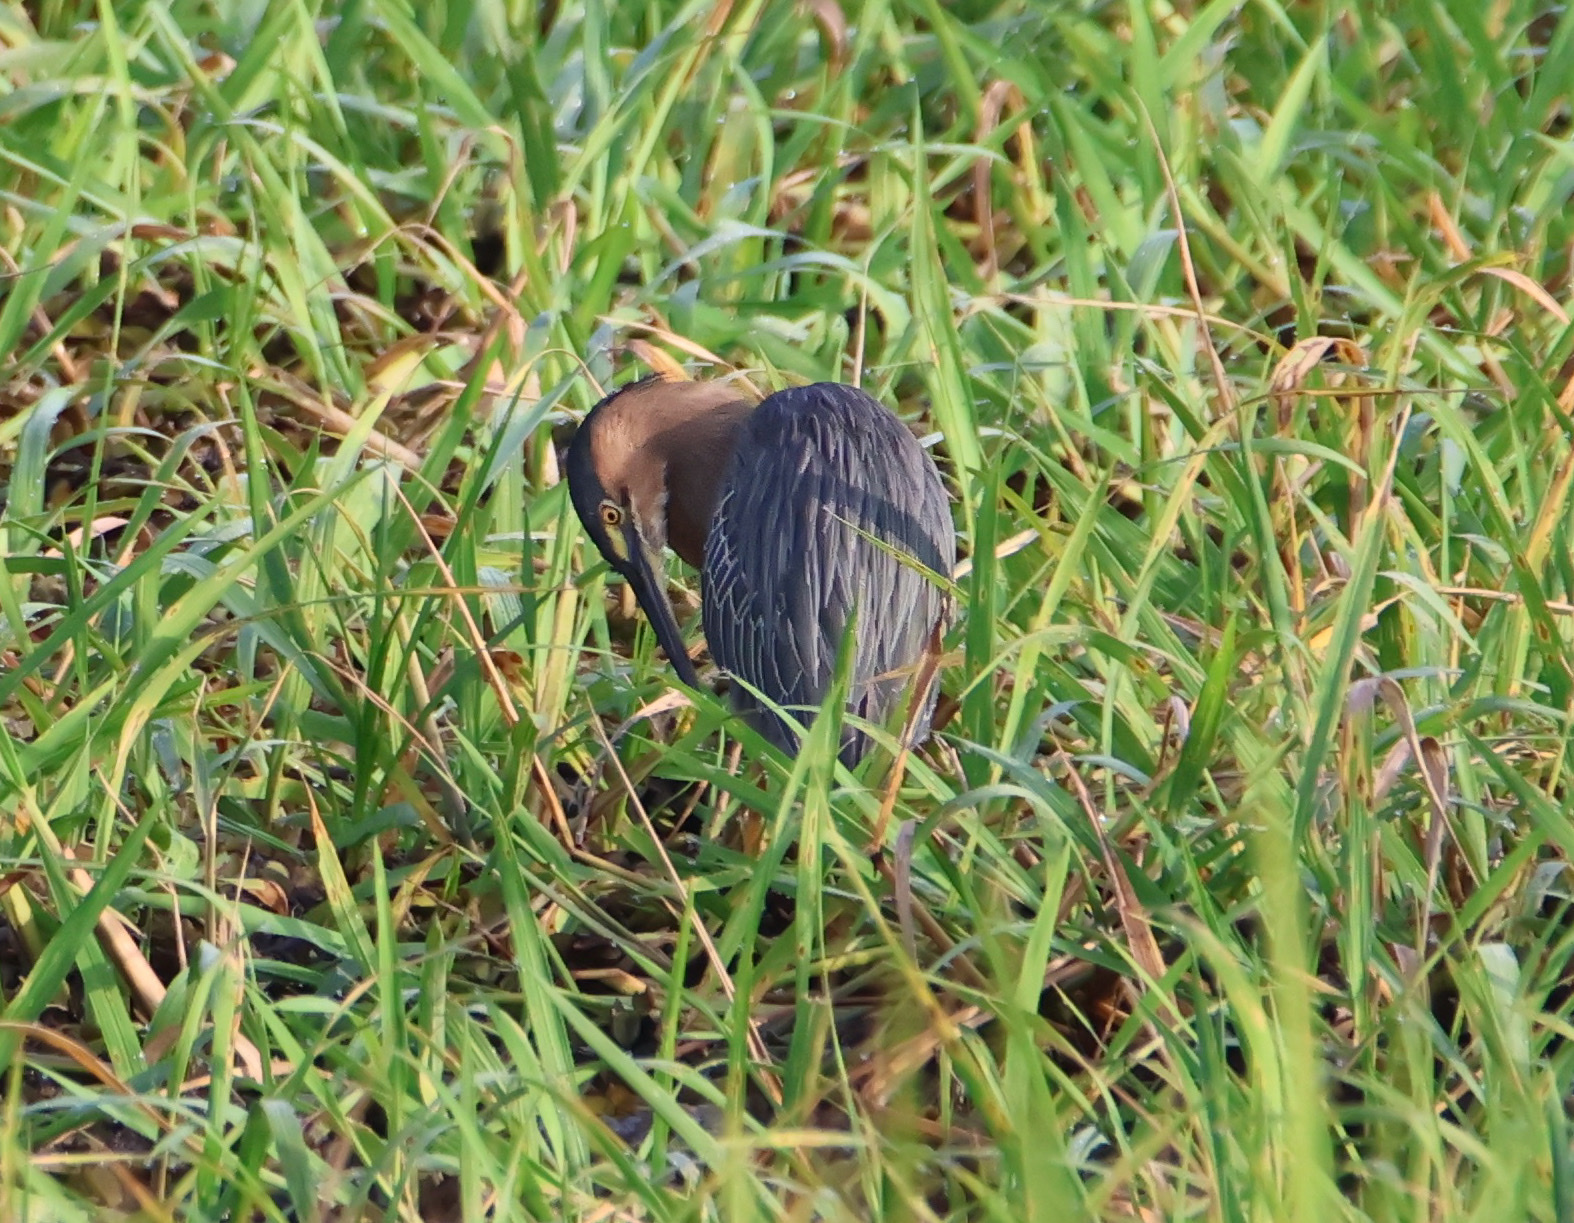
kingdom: Animalia
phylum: Chordata
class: Aves
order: Pelecaniformes
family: Ardeidae
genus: Butorides
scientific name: Butorides striata
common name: Striated heron
